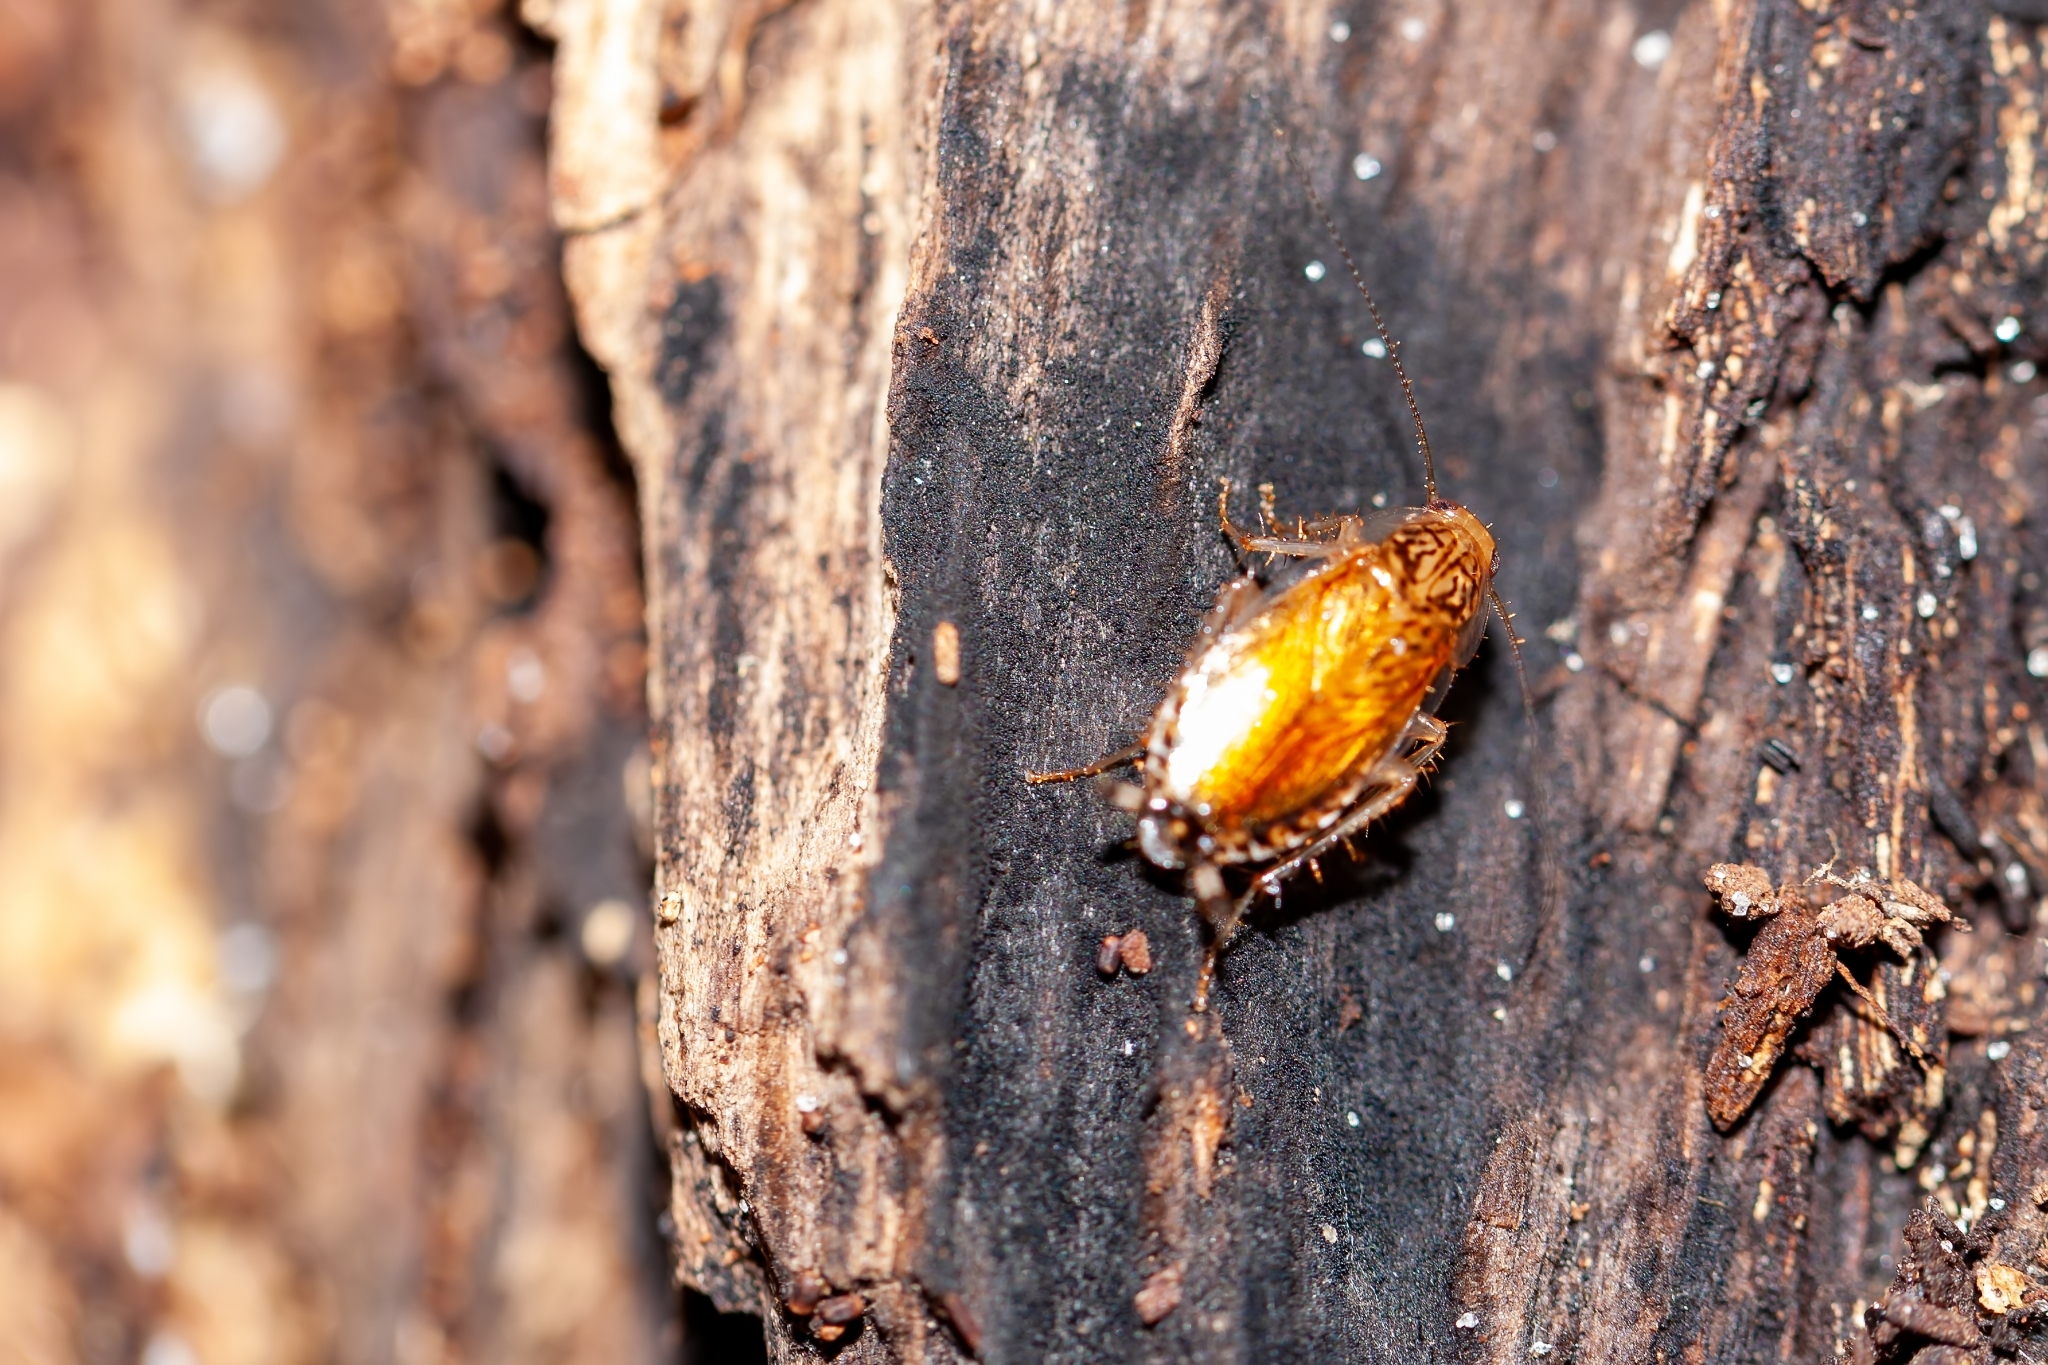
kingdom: Animalia
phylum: Arthropoda
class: Insecta
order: Blattodea
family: Ectobiidae
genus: Cariblatta
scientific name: Cariblatta lutea
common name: Small yellow cockroach
